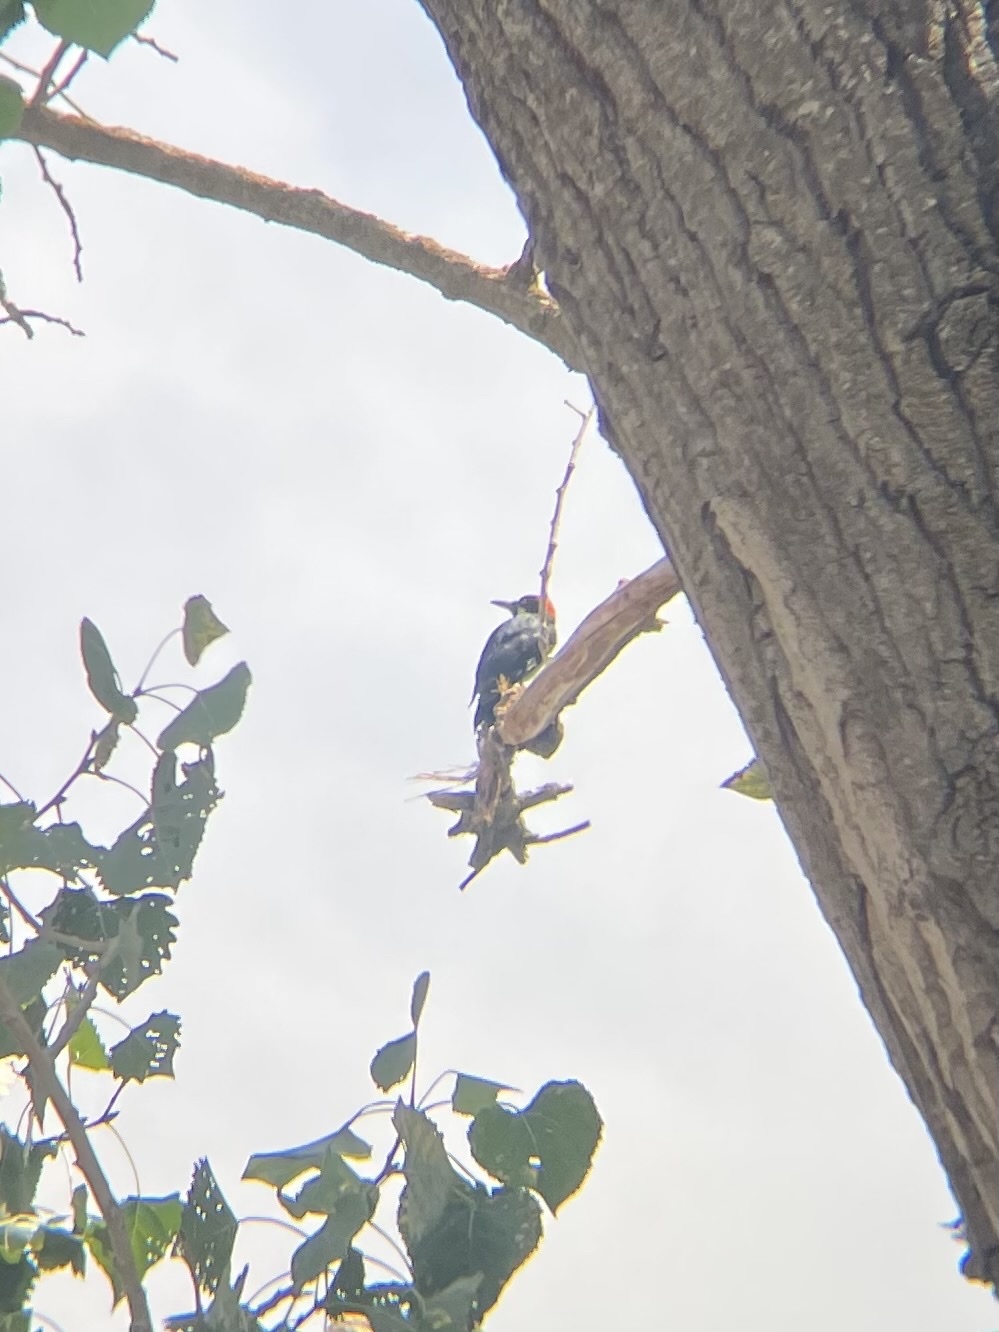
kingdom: Animalia
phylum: Chordata
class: Aves
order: Piciformes
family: Picidae
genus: Melanerpes
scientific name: Melanerpes formicivorus
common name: Acorn woodpecker
